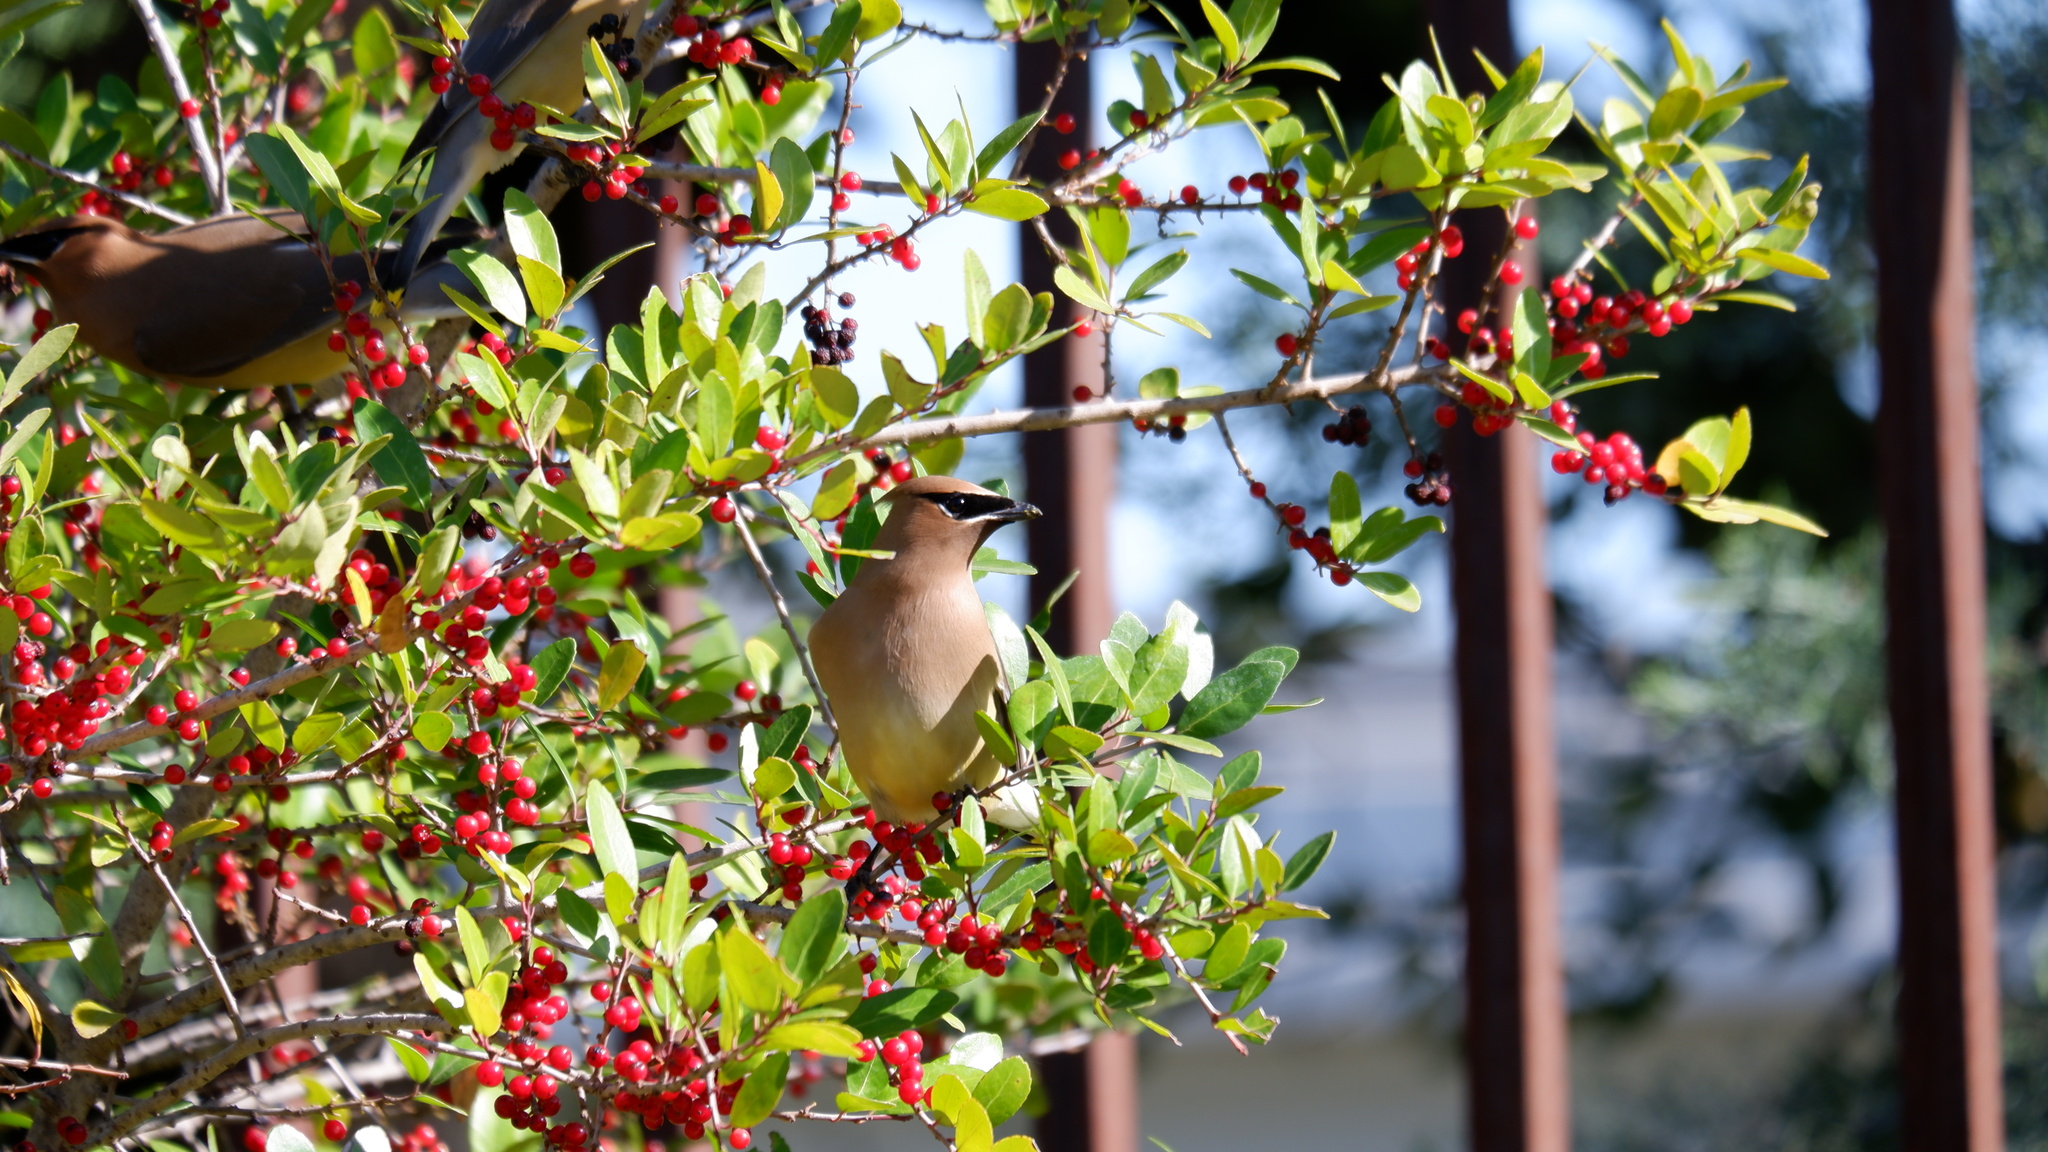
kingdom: Animalia
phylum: Chordata
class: Aves
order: Passeriformes
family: Bombycillidae
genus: Bombycilla
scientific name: Bombycilla cedrorum
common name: Cedar waxwing
